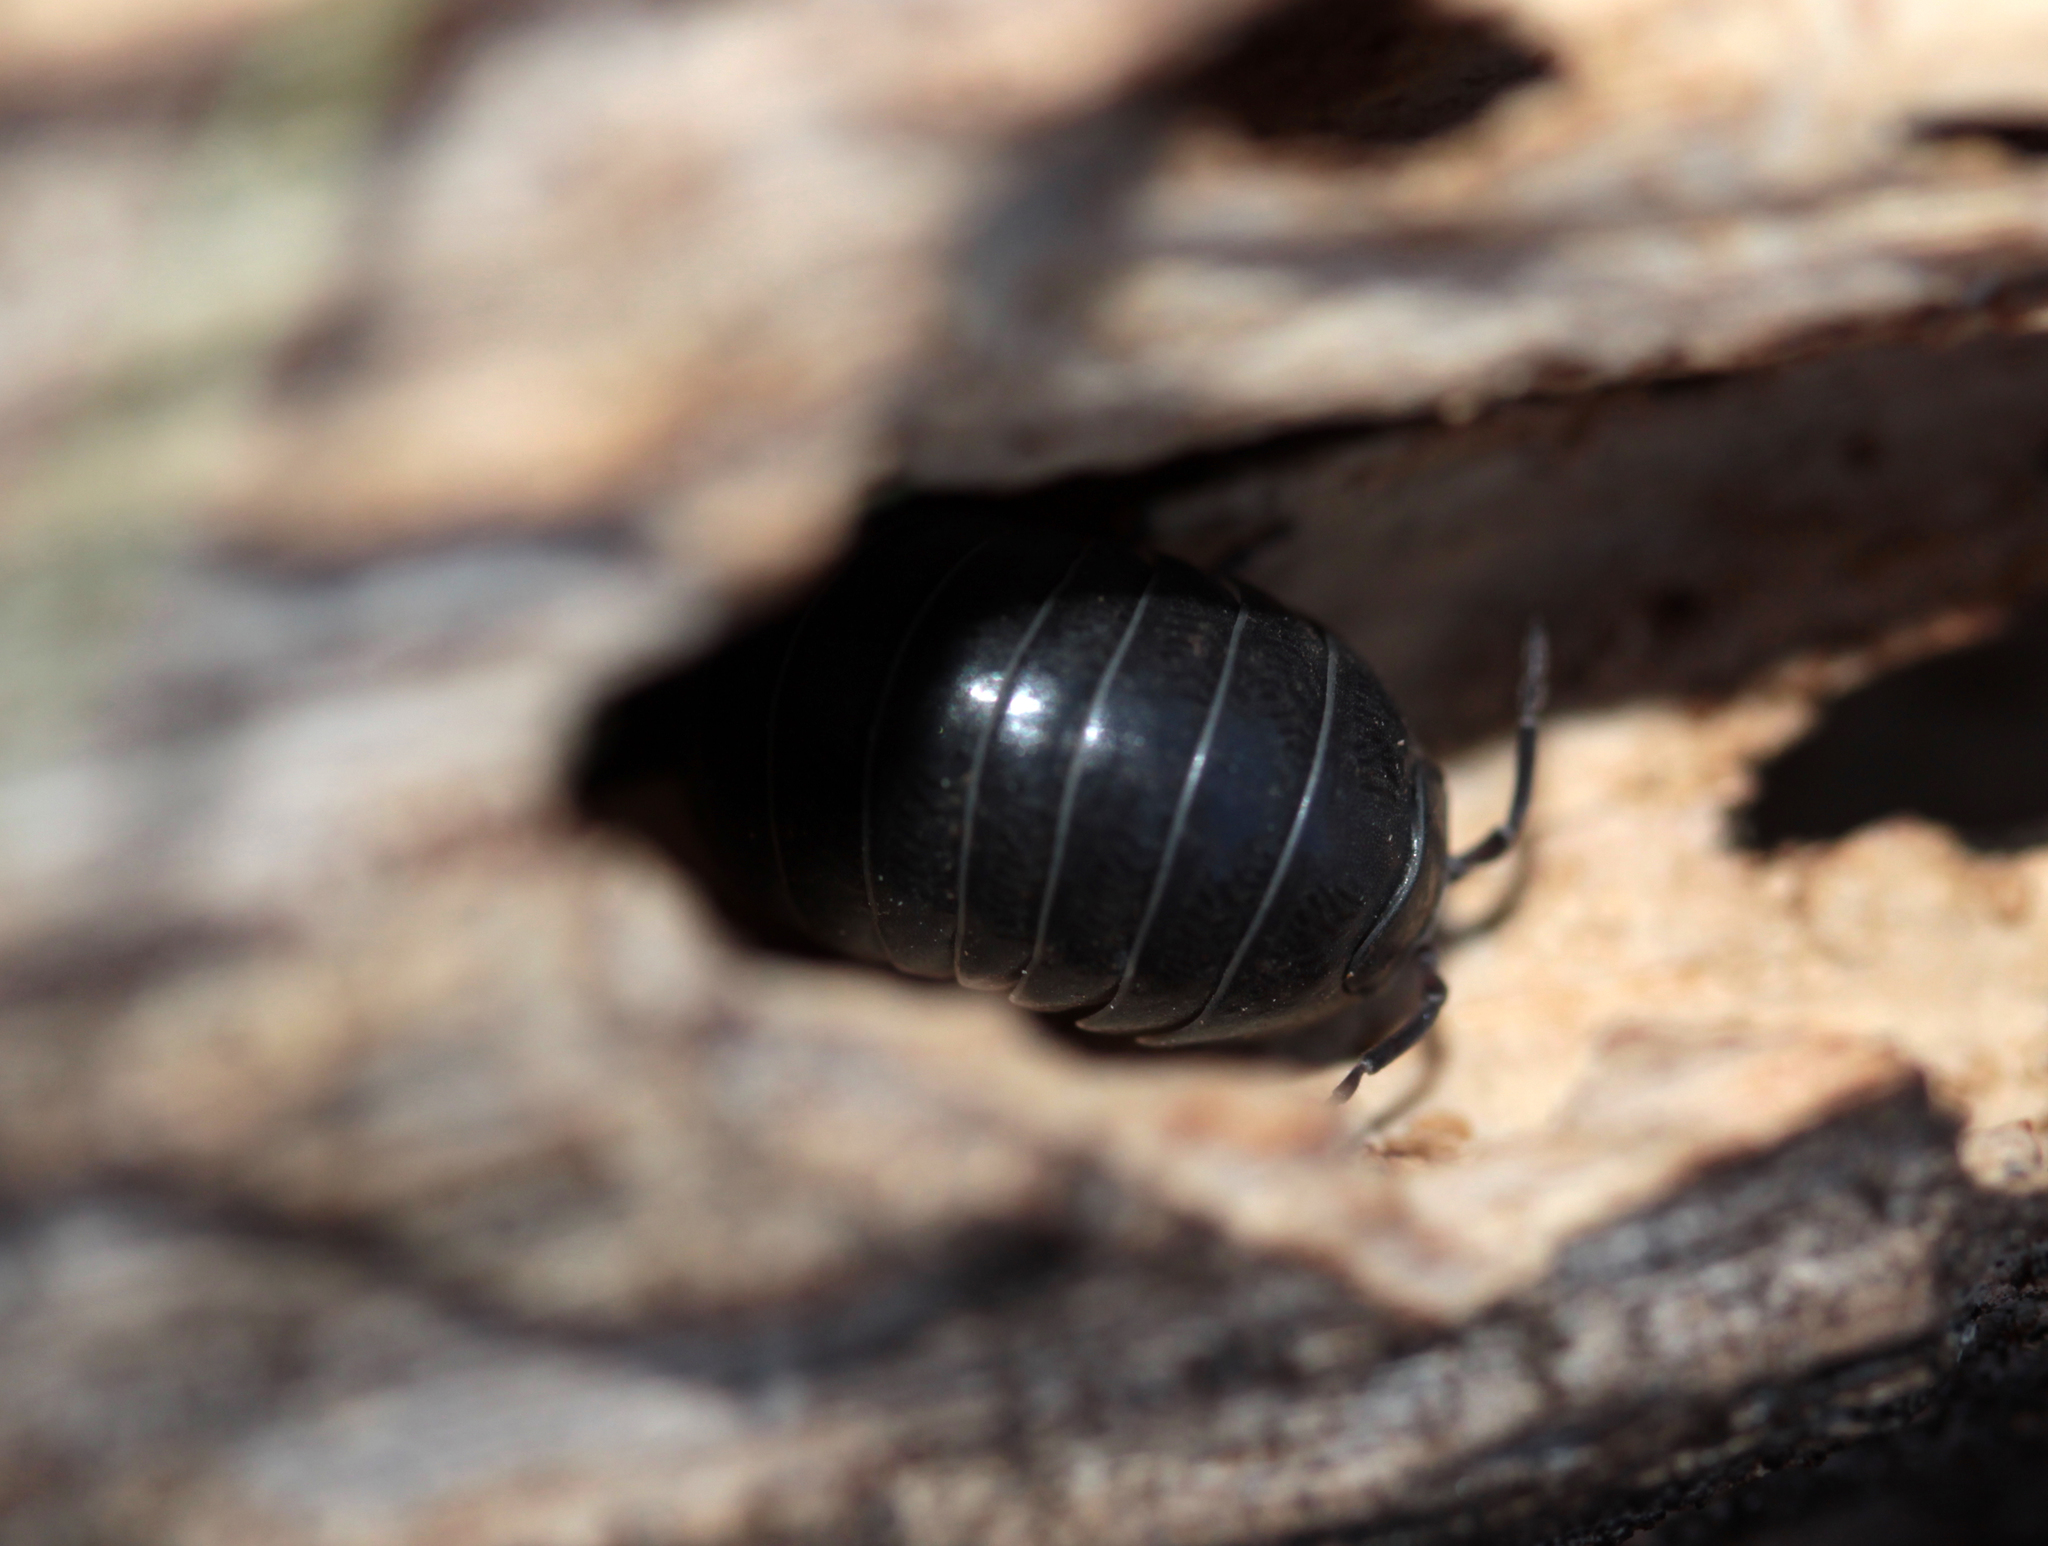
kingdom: Animalia
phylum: Arthropoda
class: Malacostraca
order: Isopoda
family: Armadillidiidae
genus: Armadillidium
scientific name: Armadillidium vulgare
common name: Common pill woodlouse
